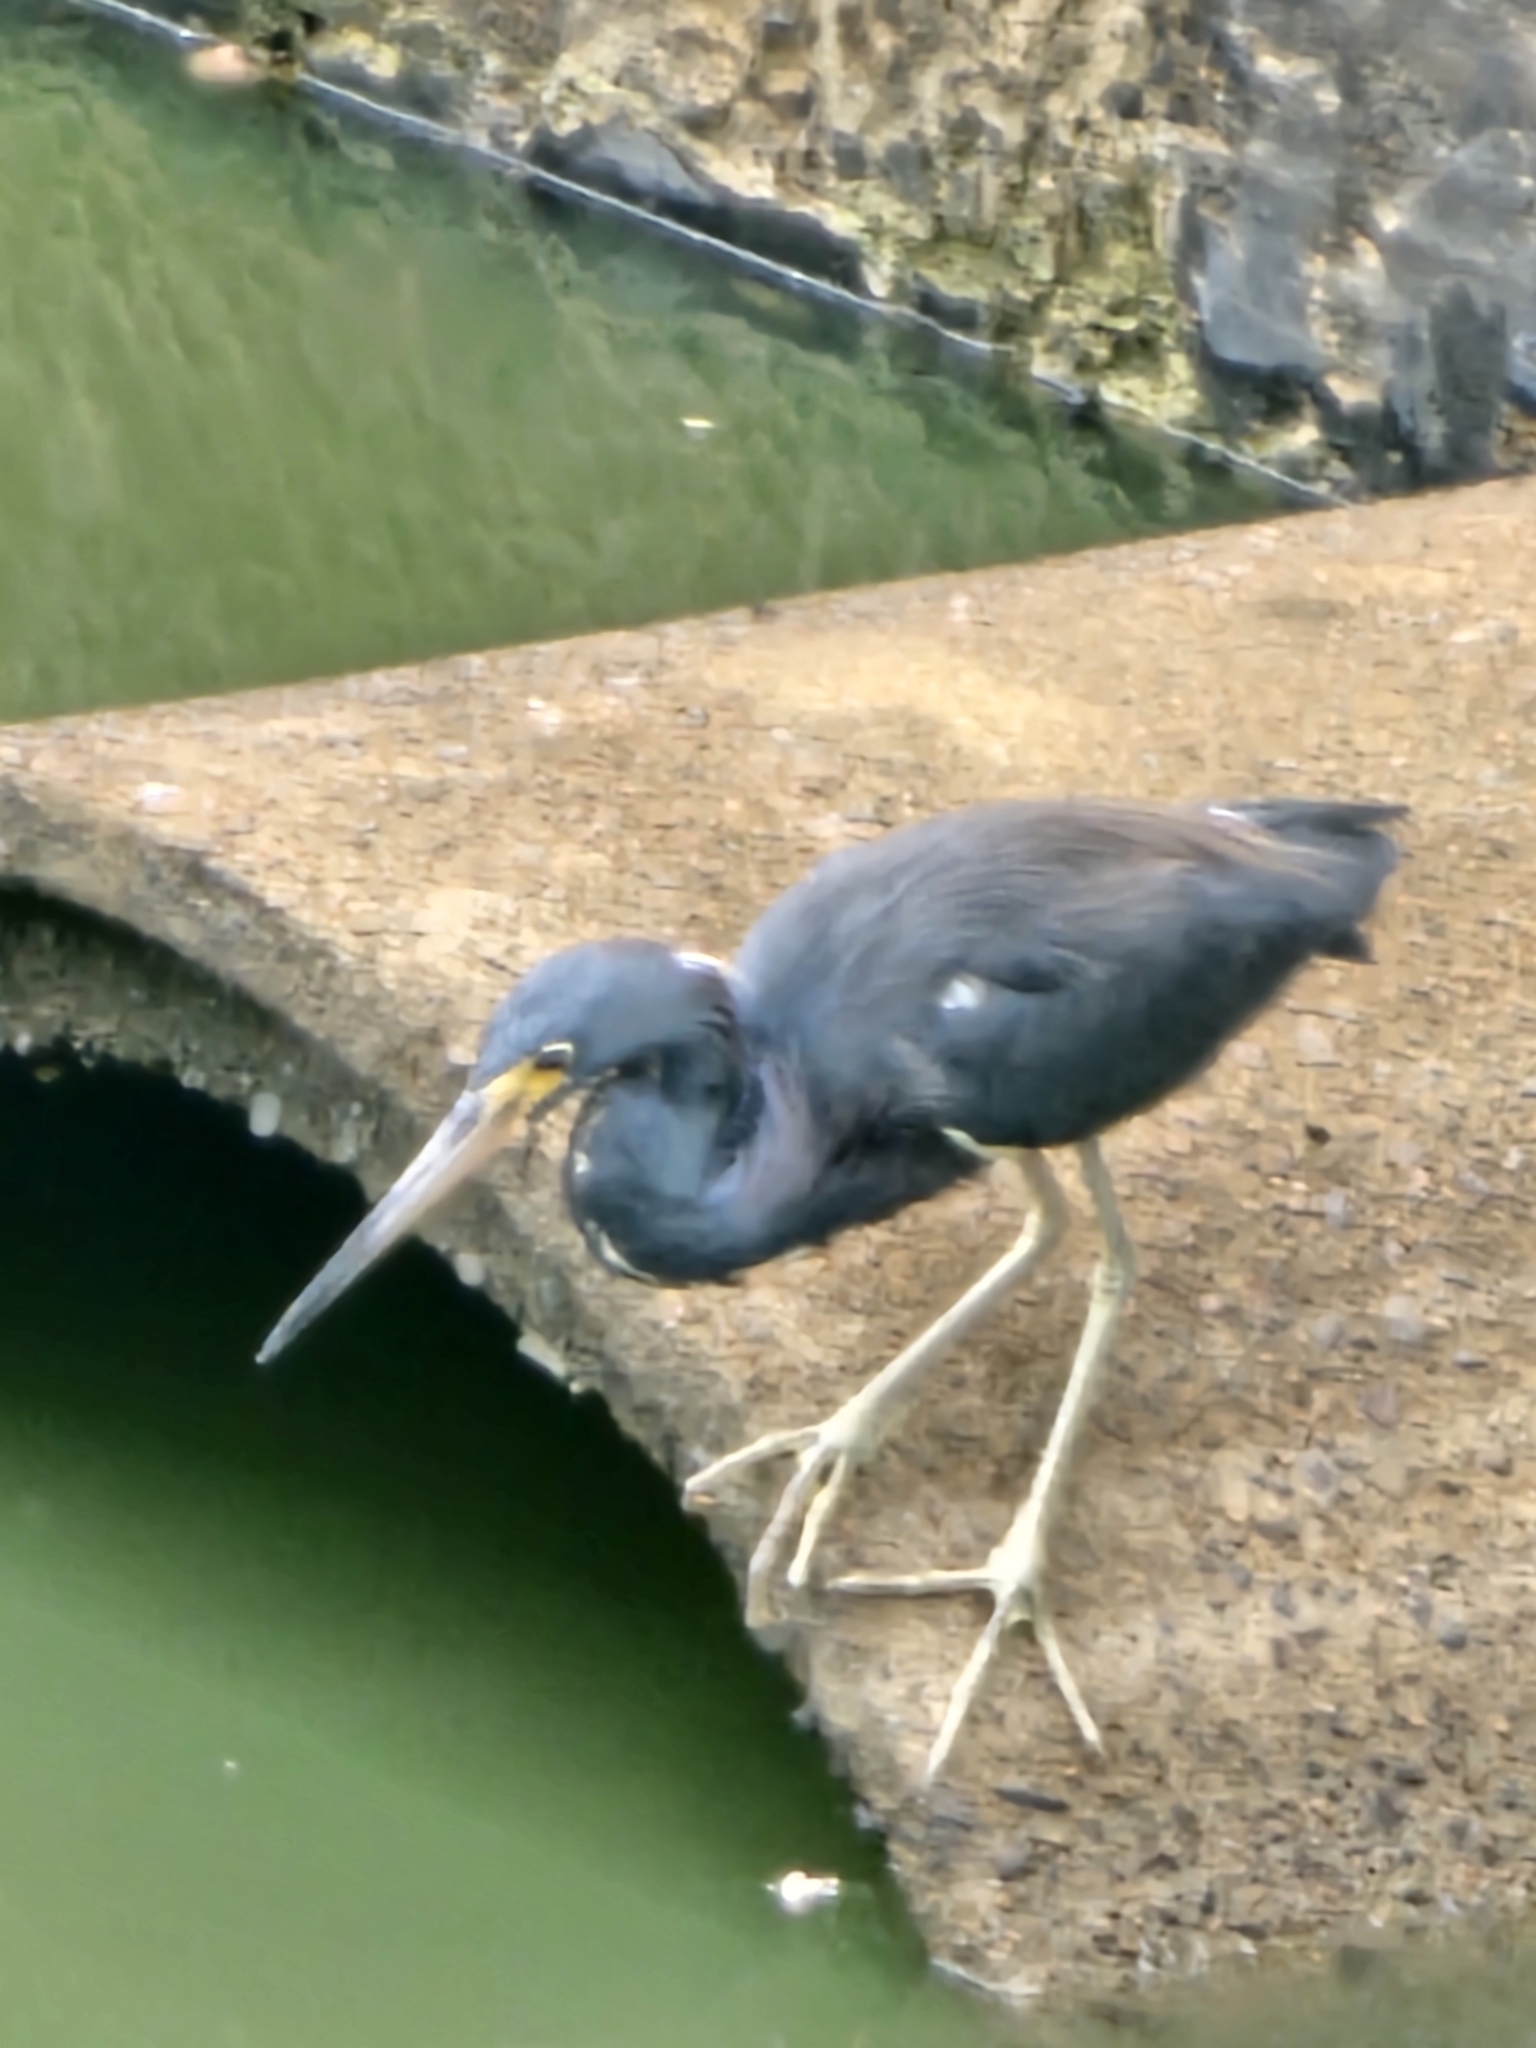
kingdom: Animalia
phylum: Chordata
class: Aves
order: Pelecaniformes
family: Ardeidae
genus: Egretta
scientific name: Egretta tricolor
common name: Tricolored heron
